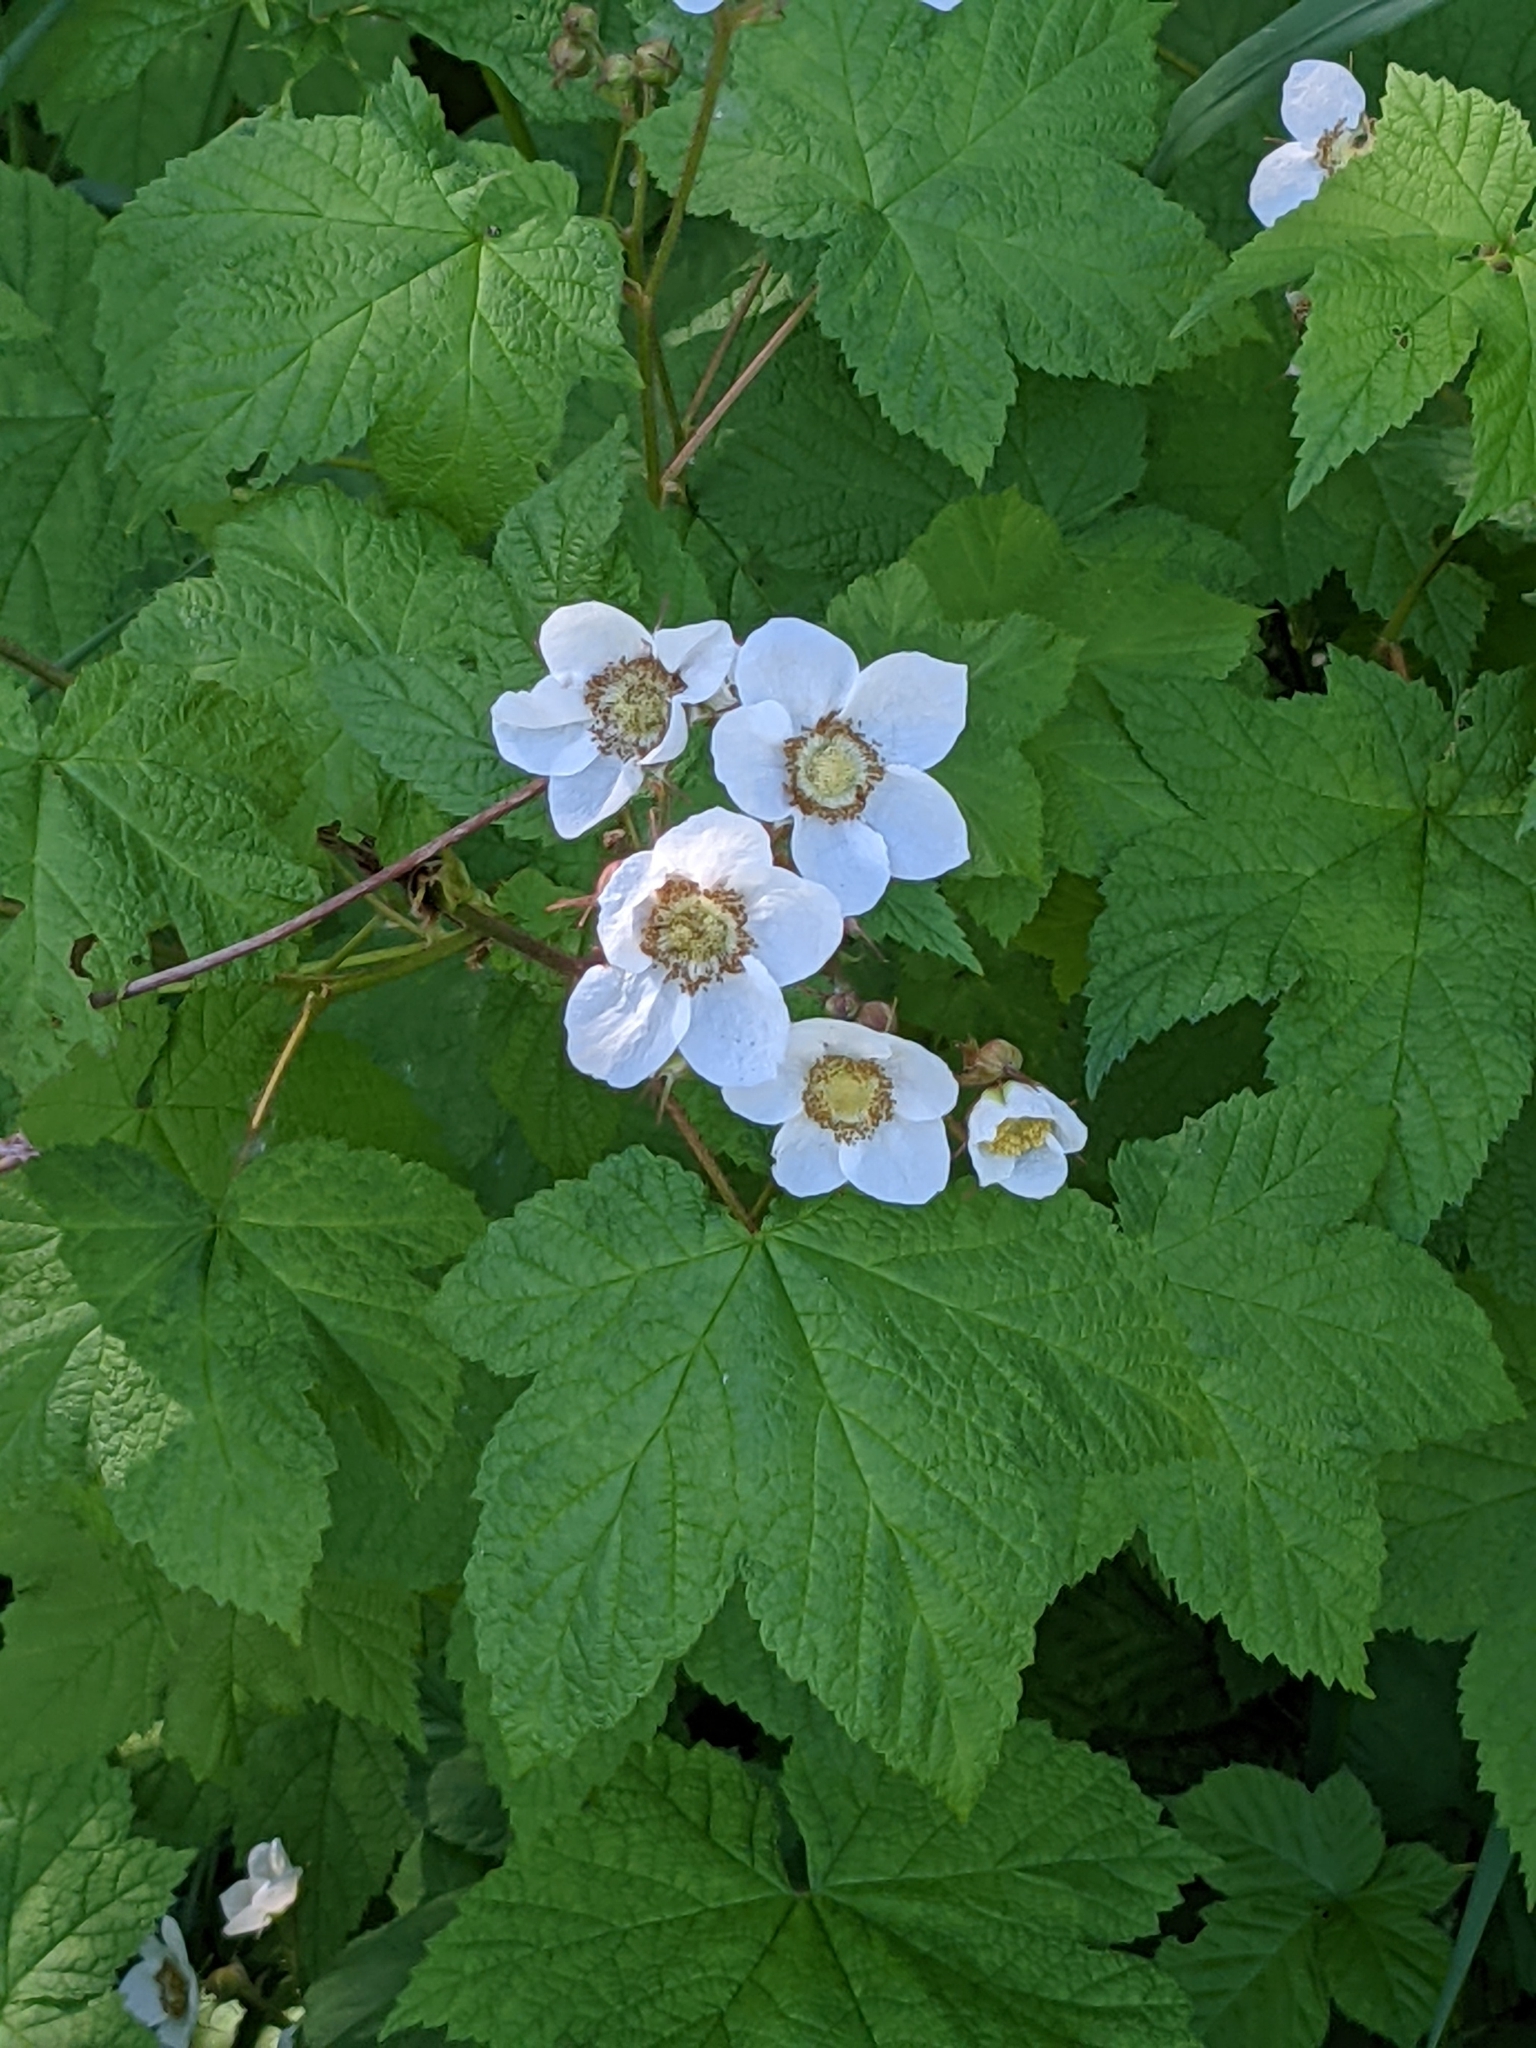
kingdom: Plantae
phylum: Tracheophyta
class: Magnoliopsida
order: Rosales
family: Rosaceae
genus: Rubus
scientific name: Rubus parviflorus
